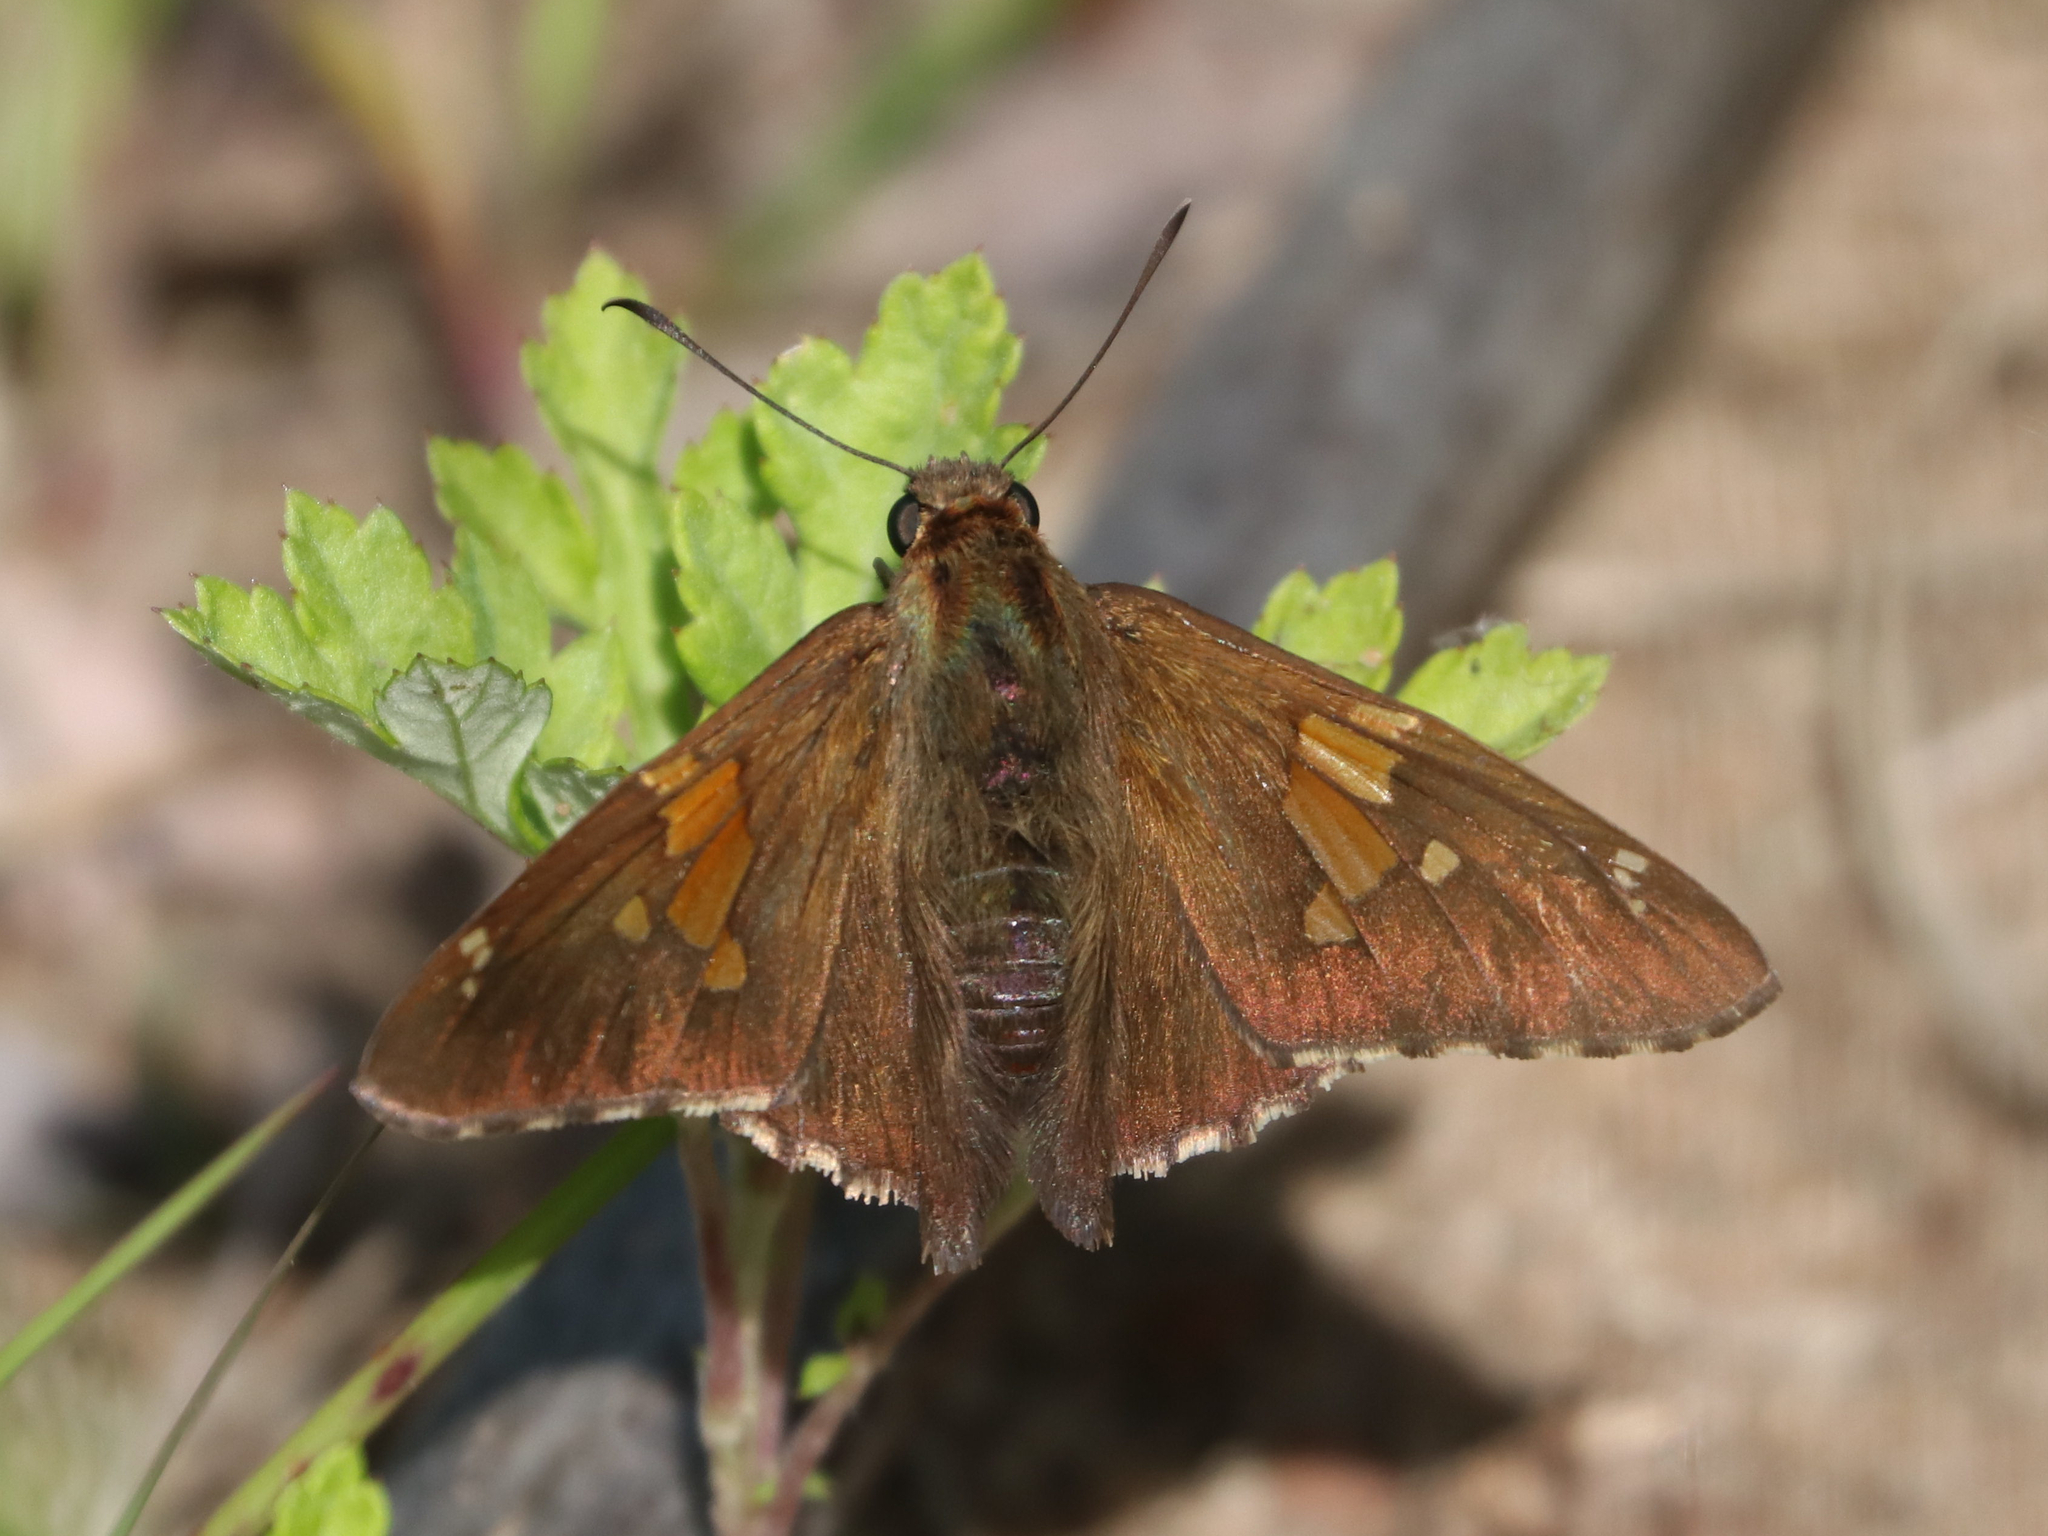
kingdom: Animalia
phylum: Arthropoda
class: Insecta
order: Lepidoptera
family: Hesperiidae
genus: Epargyreus
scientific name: Epargyreus clarus
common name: Silver-spotted skipper
